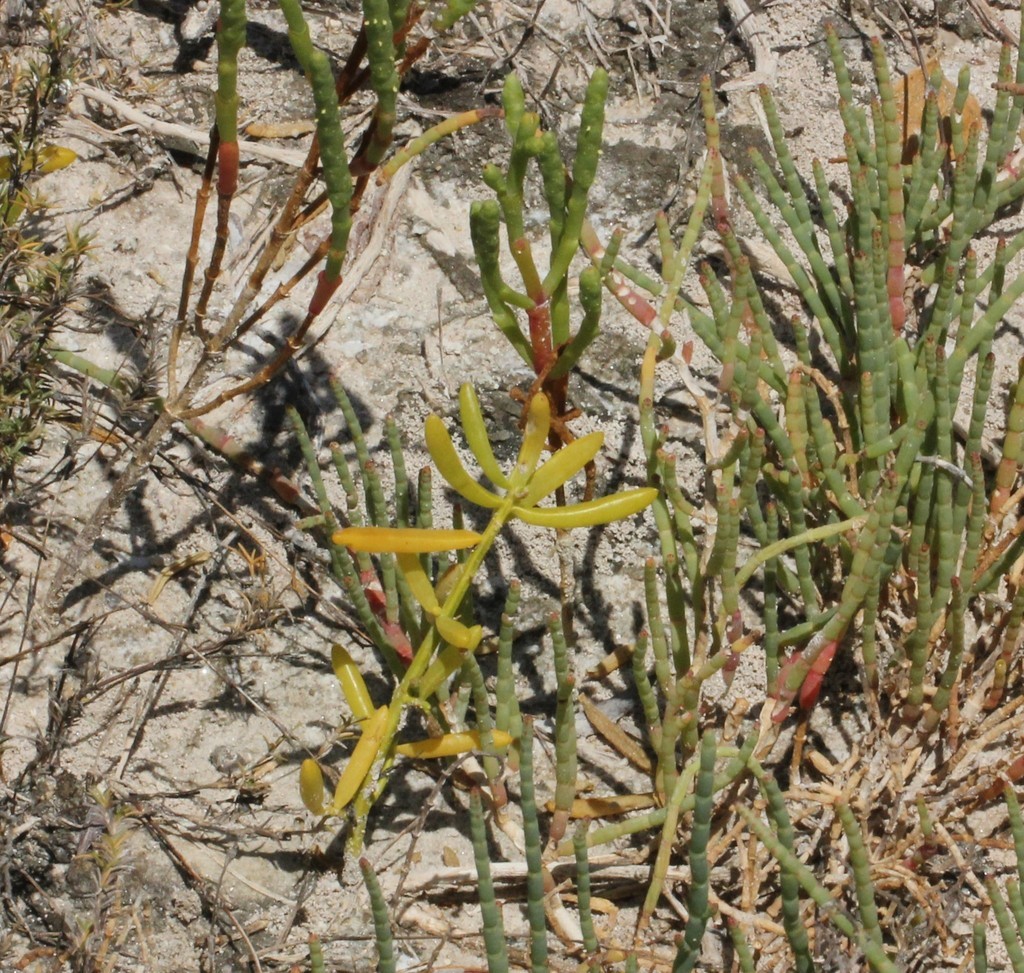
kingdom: Plantae
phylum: Tracheophyta
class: Magnoliopsida
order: Caryophyllales
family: Amaranthaceae
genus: Salicornia
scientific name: Salicornia ambigua
